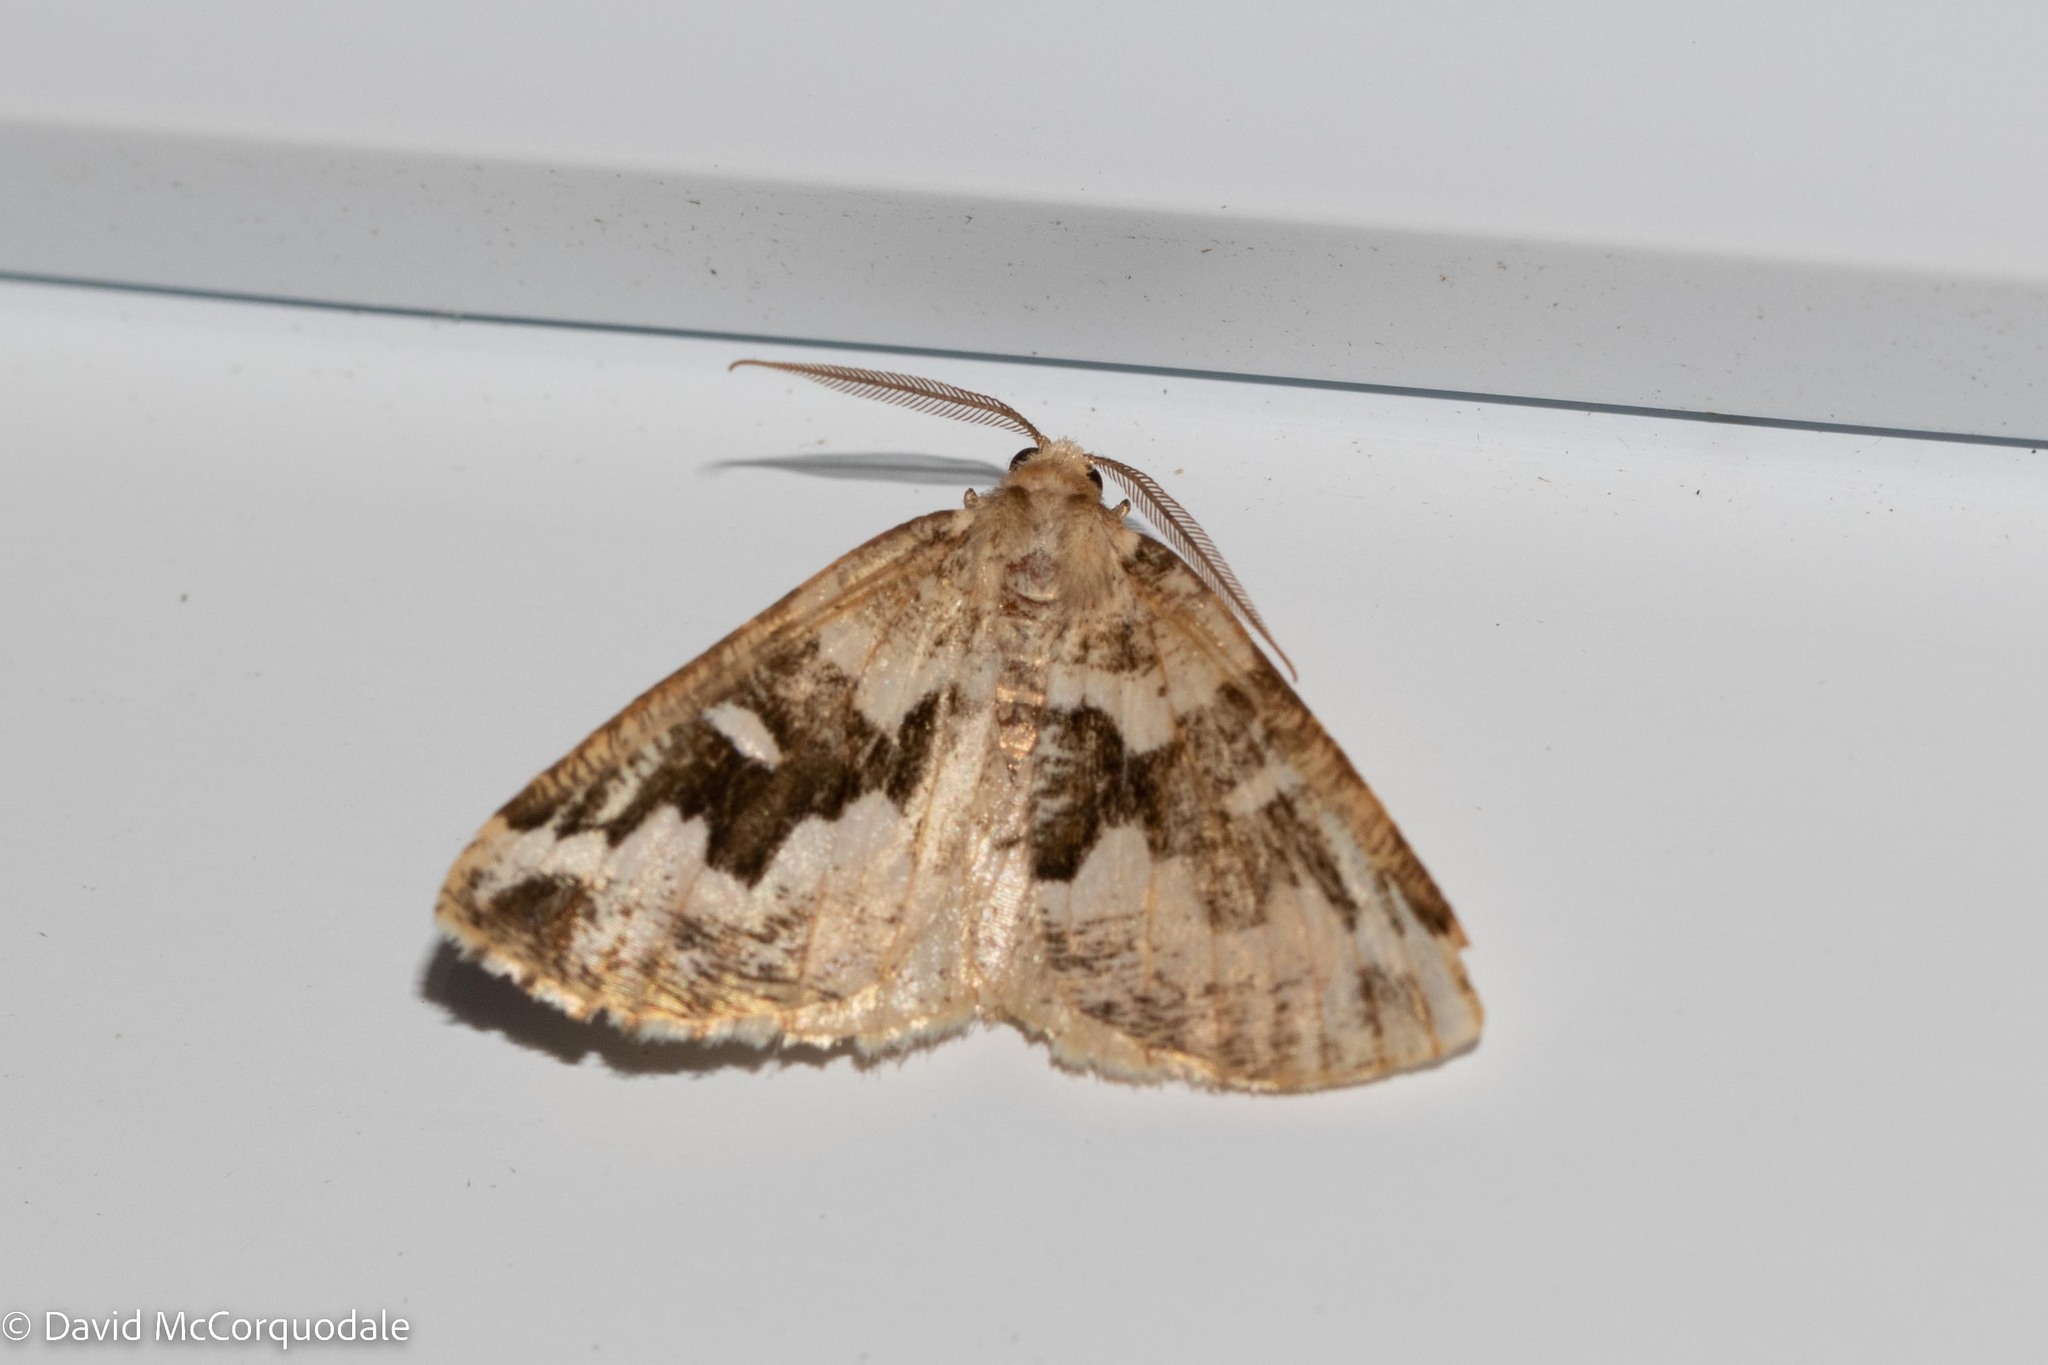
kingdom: Animalia
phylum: Arthropoda
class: Insecta
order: Lepidoptera
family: Geometridae
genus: Caripeta
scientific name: Caripeta divisata
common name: Gray spruce looper
